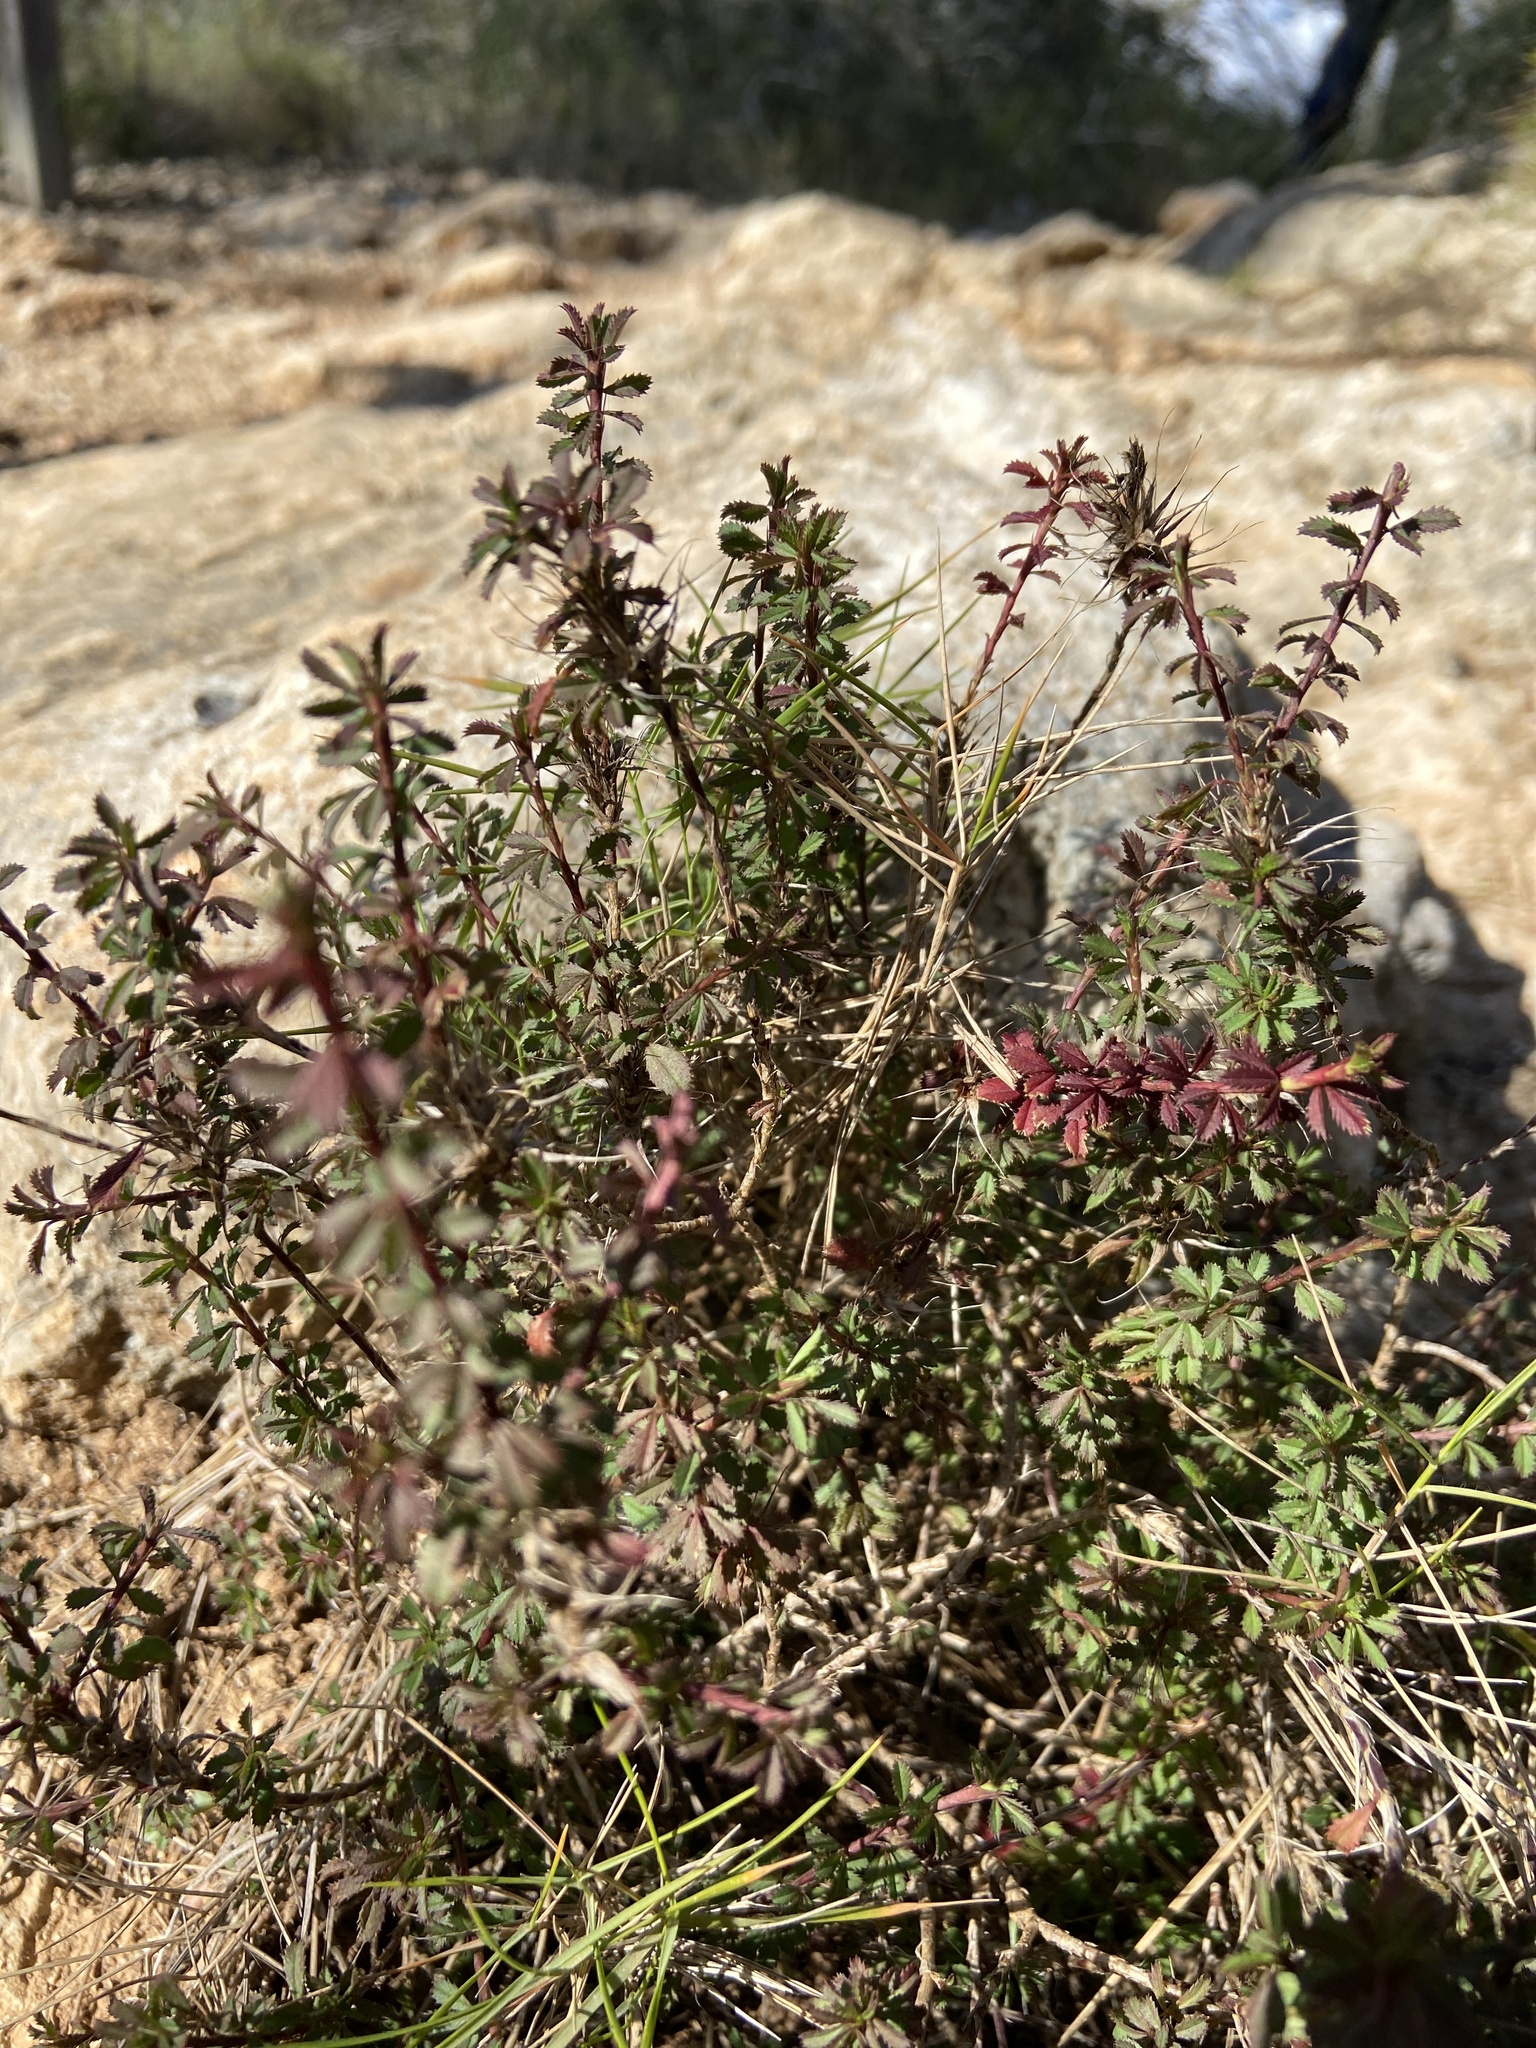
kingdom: Plantae
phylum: Tracheophyta
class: Magnoliopsida
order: Fabales
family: Fabaceae
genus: Ononis
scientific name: Ononis minutissima
